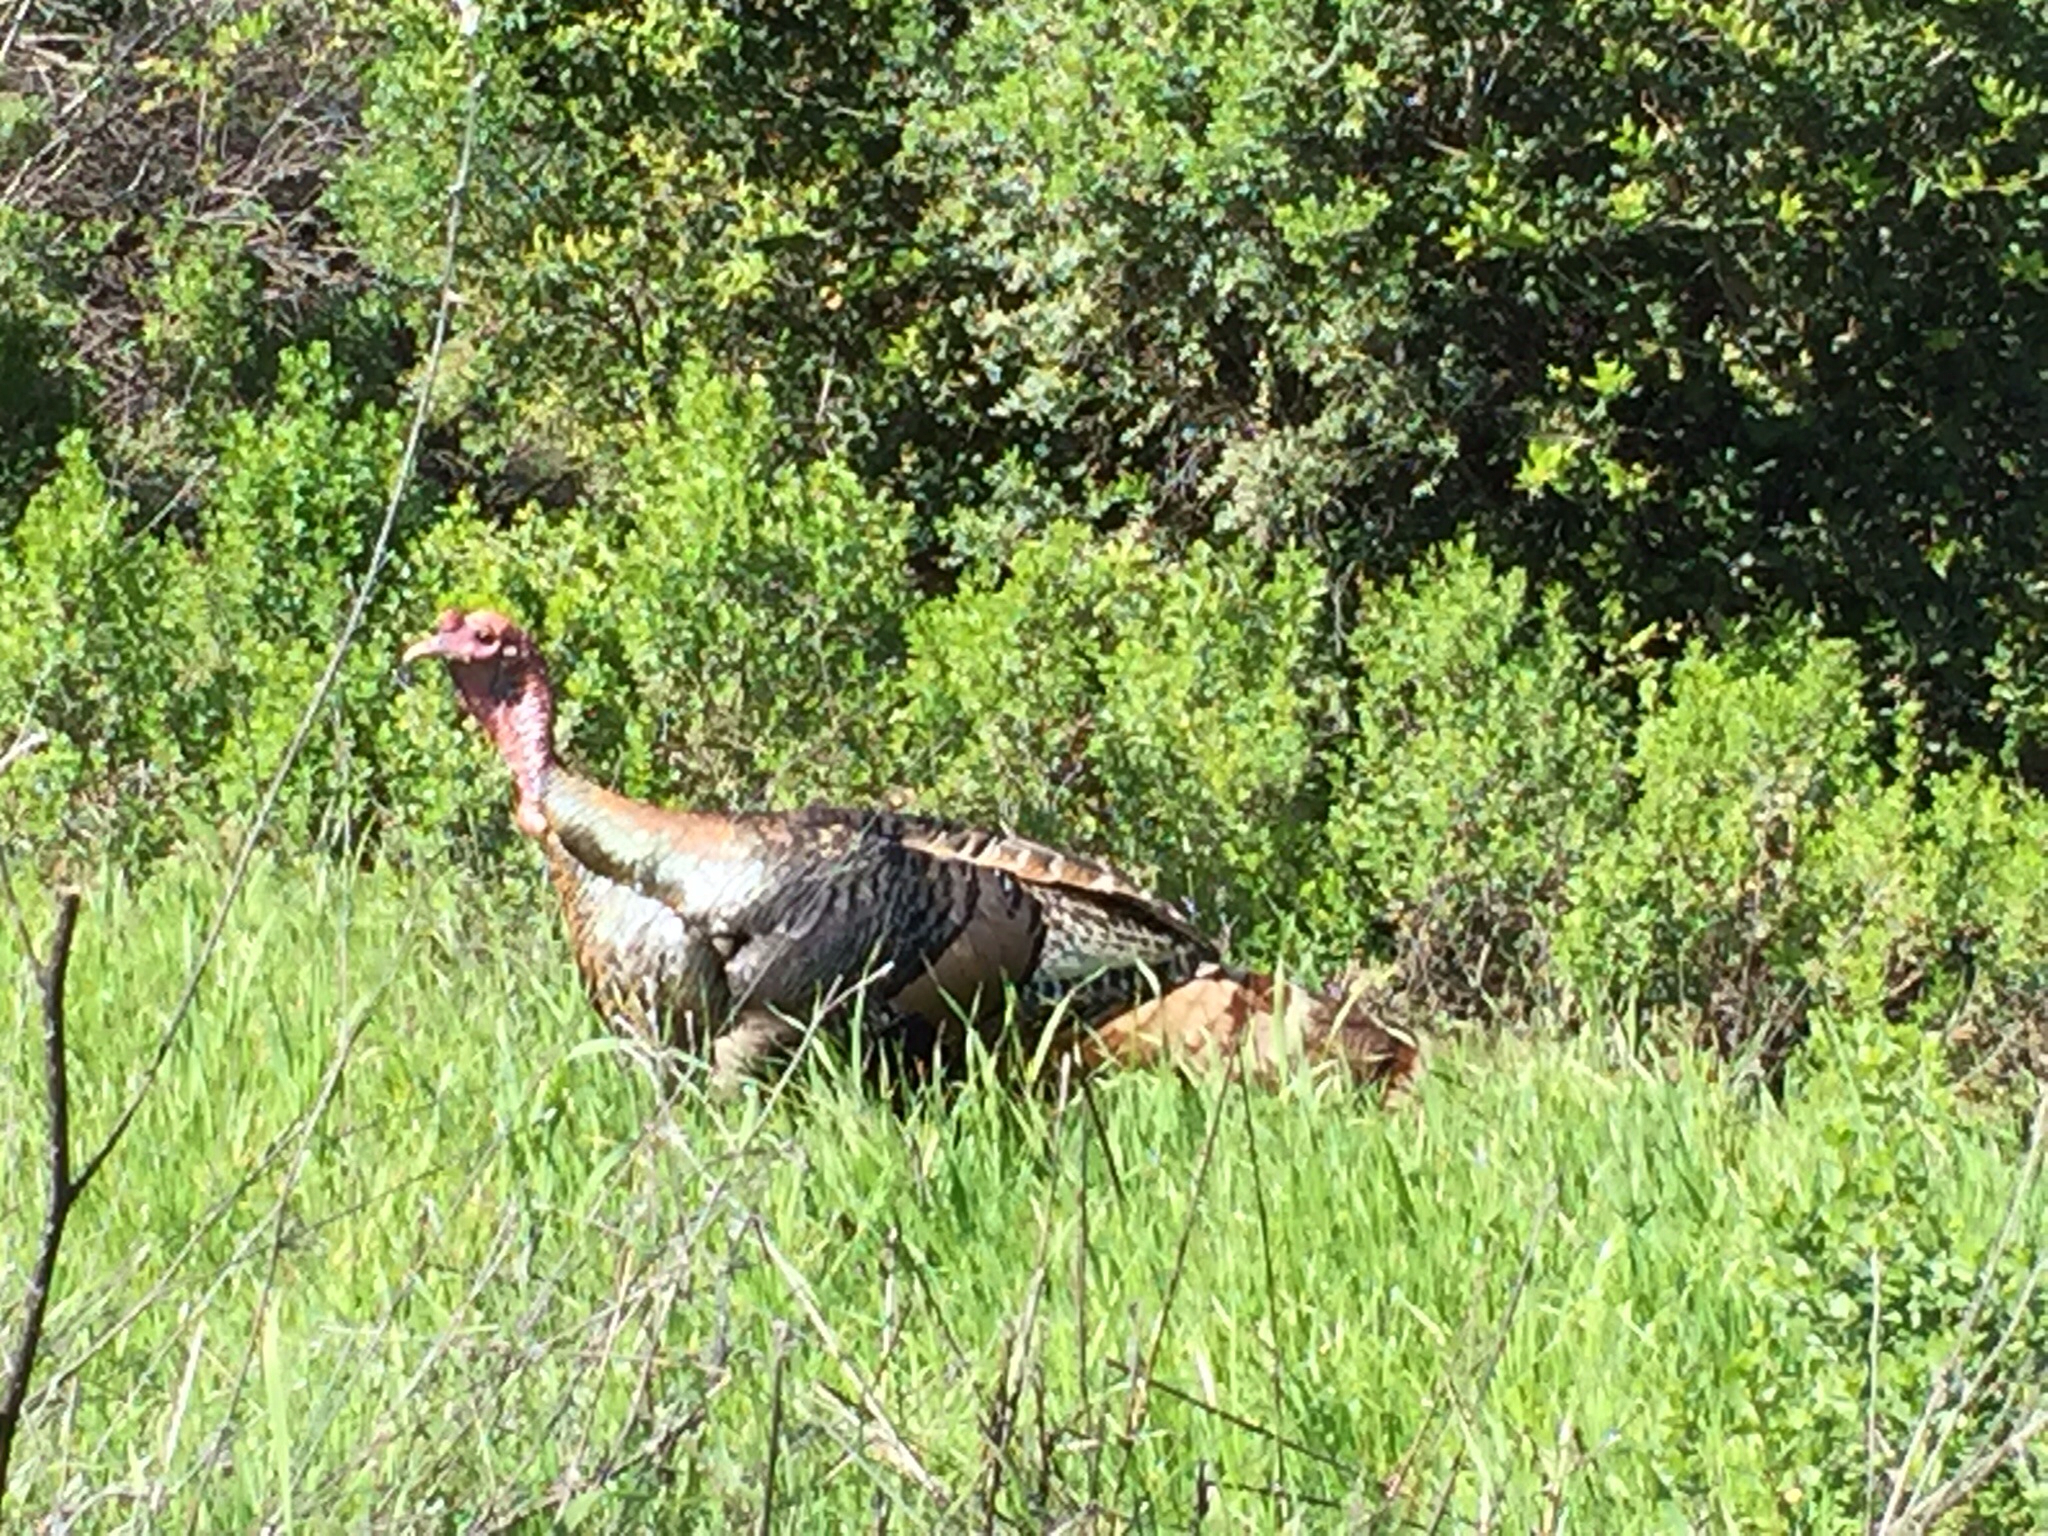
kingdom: Animalia
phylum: Chordata
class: Aves
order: Galliformes
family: Phasianidae
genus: Meleagris
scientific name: Meleagris gallopavo
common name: Wild turkey
